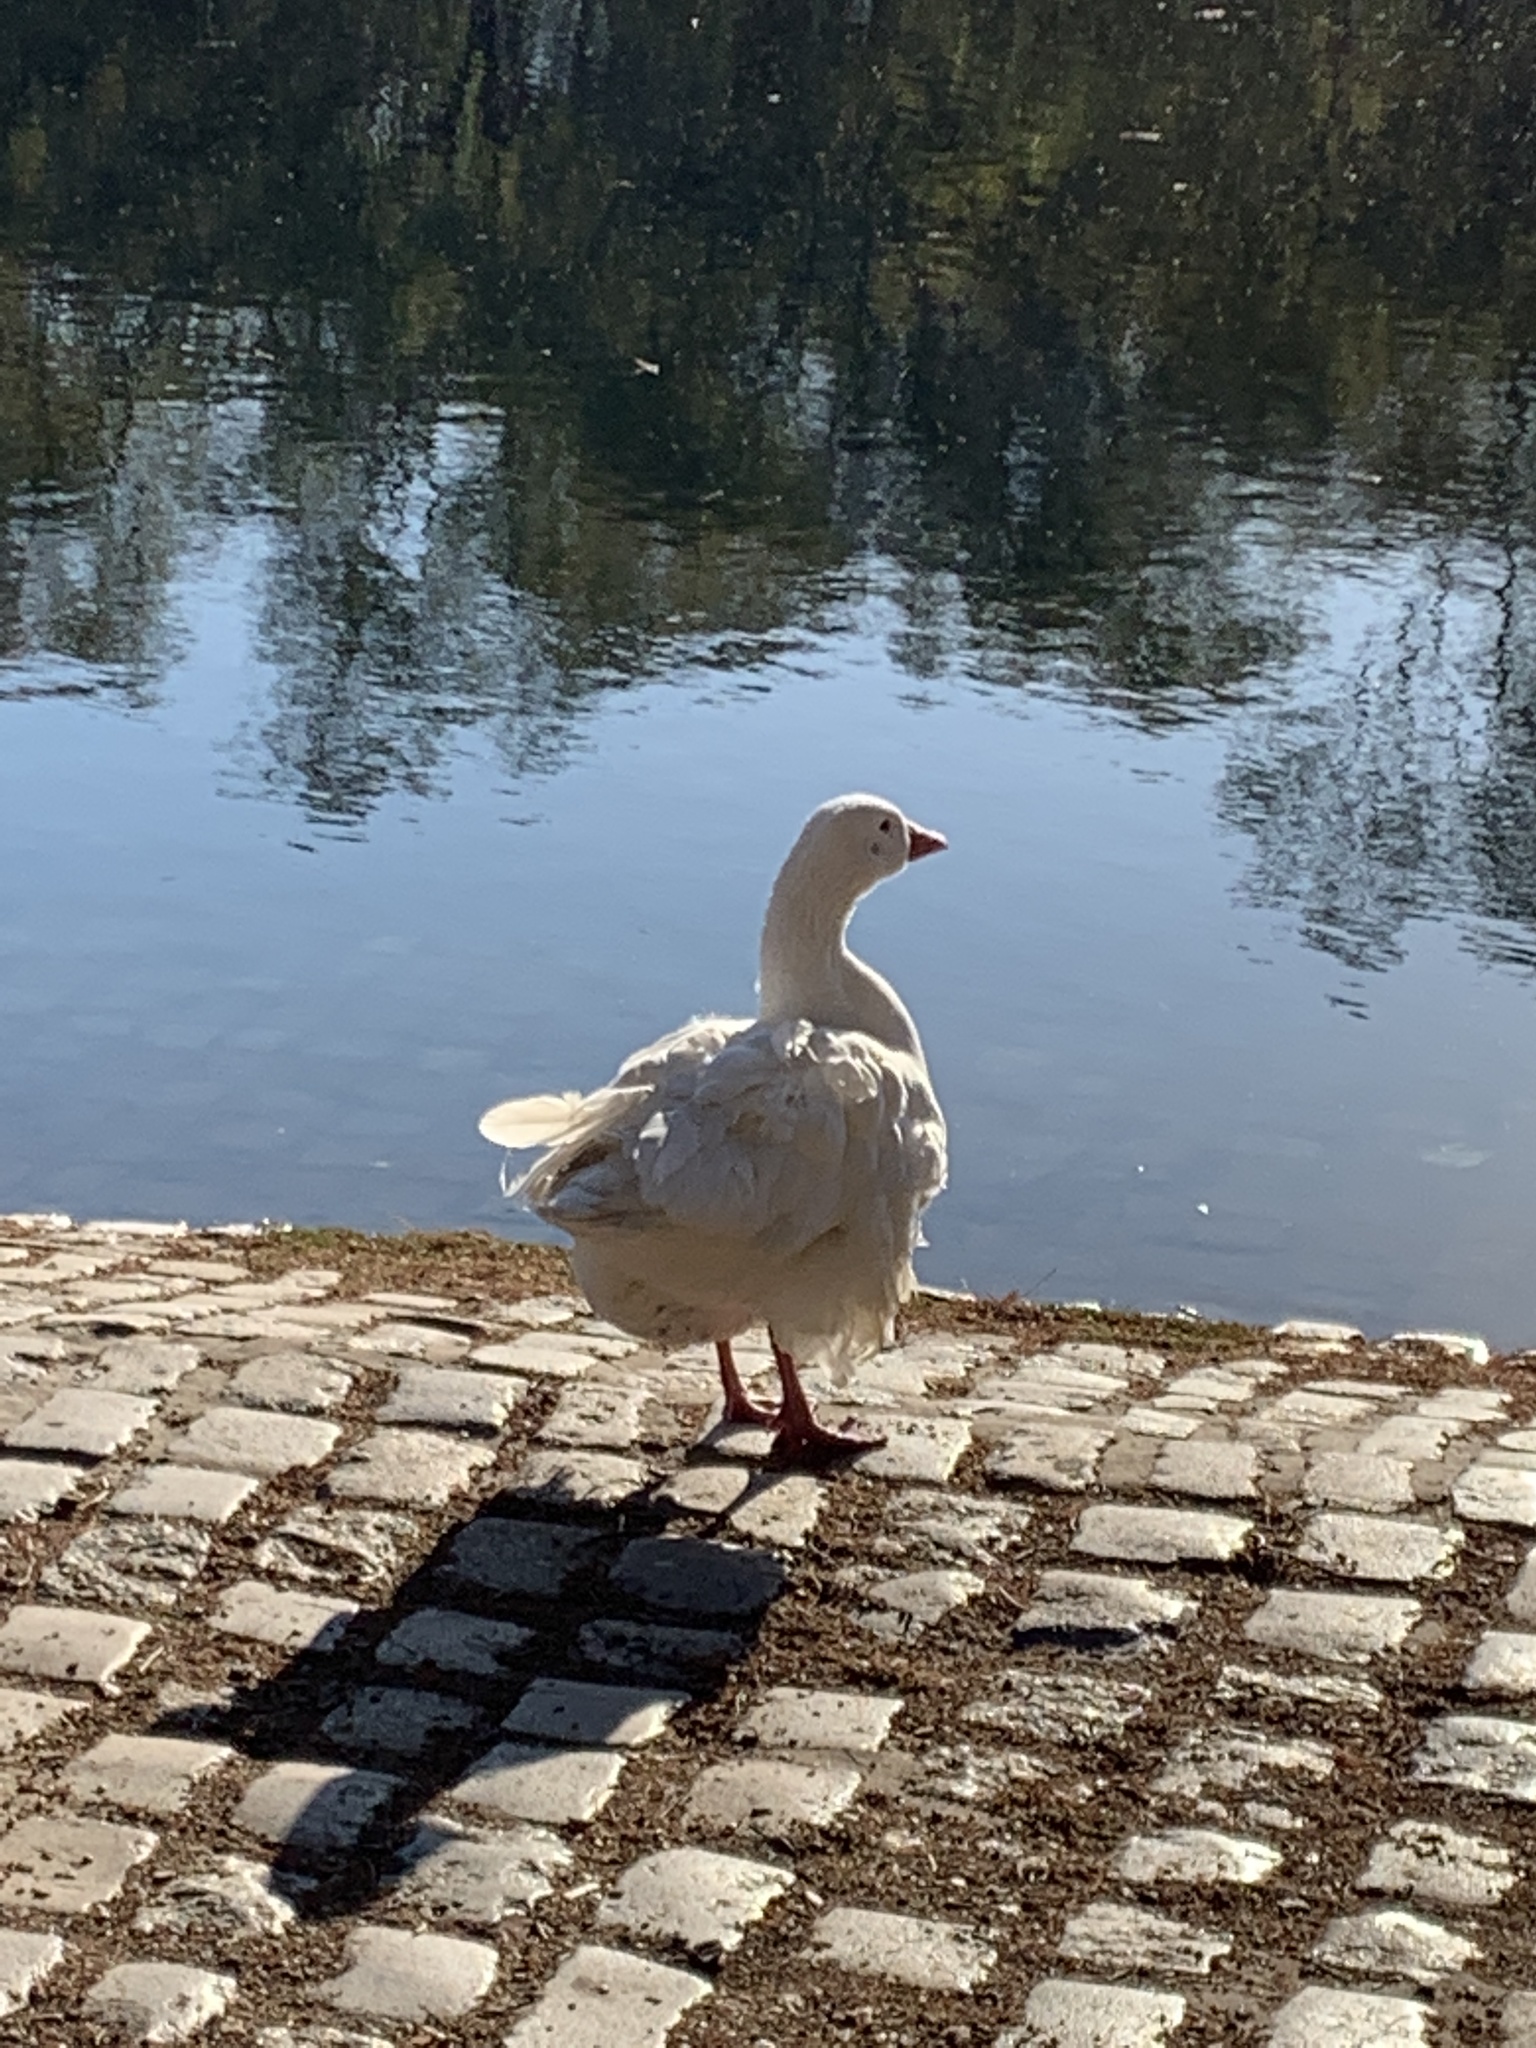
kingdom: Animalia
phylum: Chordata
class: Aves
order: Anseriformes
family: Anatidae
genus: Anser
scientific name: Anser anser
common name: Greylag goose
